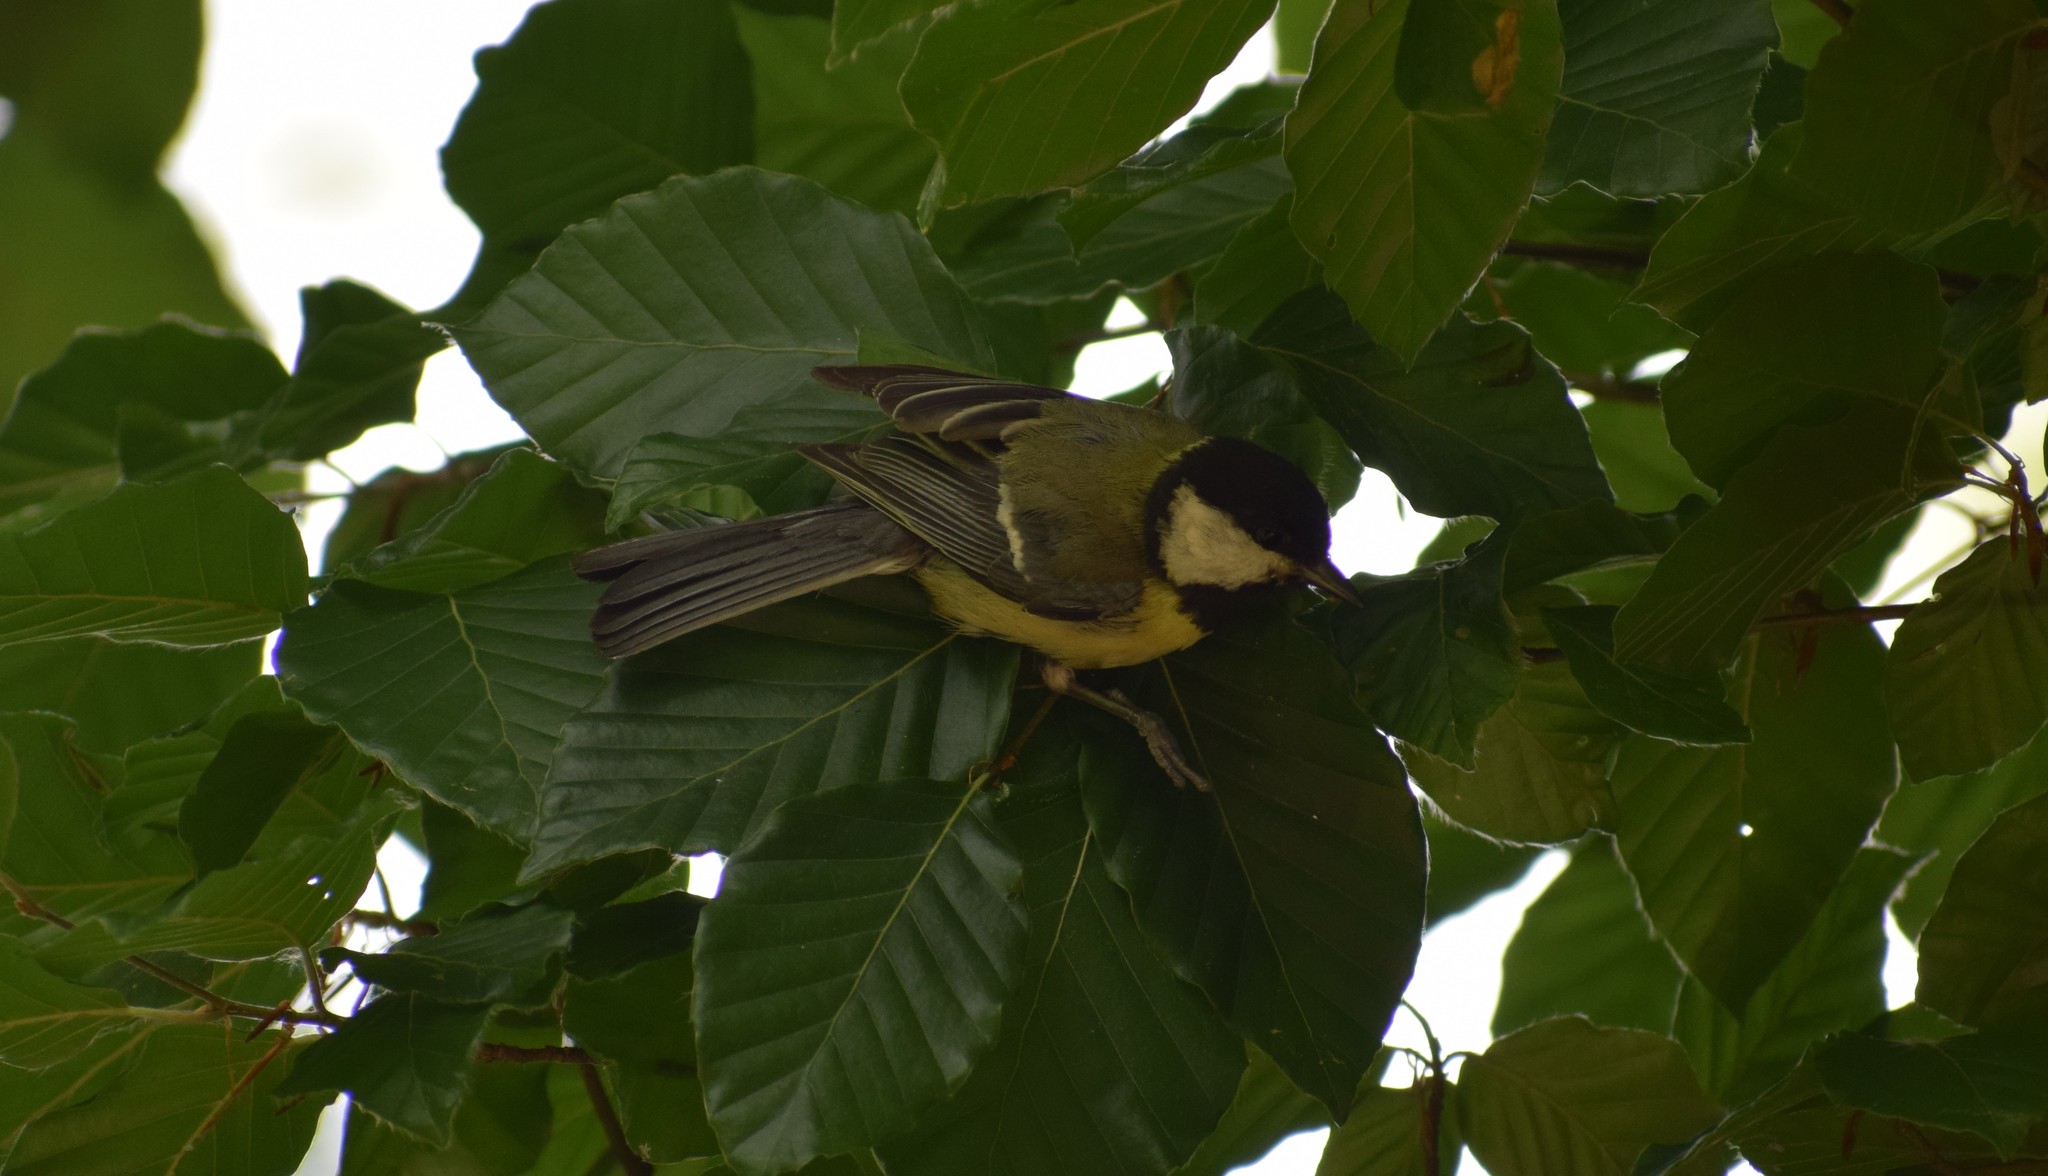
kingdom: Animalia
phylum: Chordata
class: Aves
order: Passeriformes
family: Paridae
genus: Parus
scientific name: Parus major
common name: Great tit
